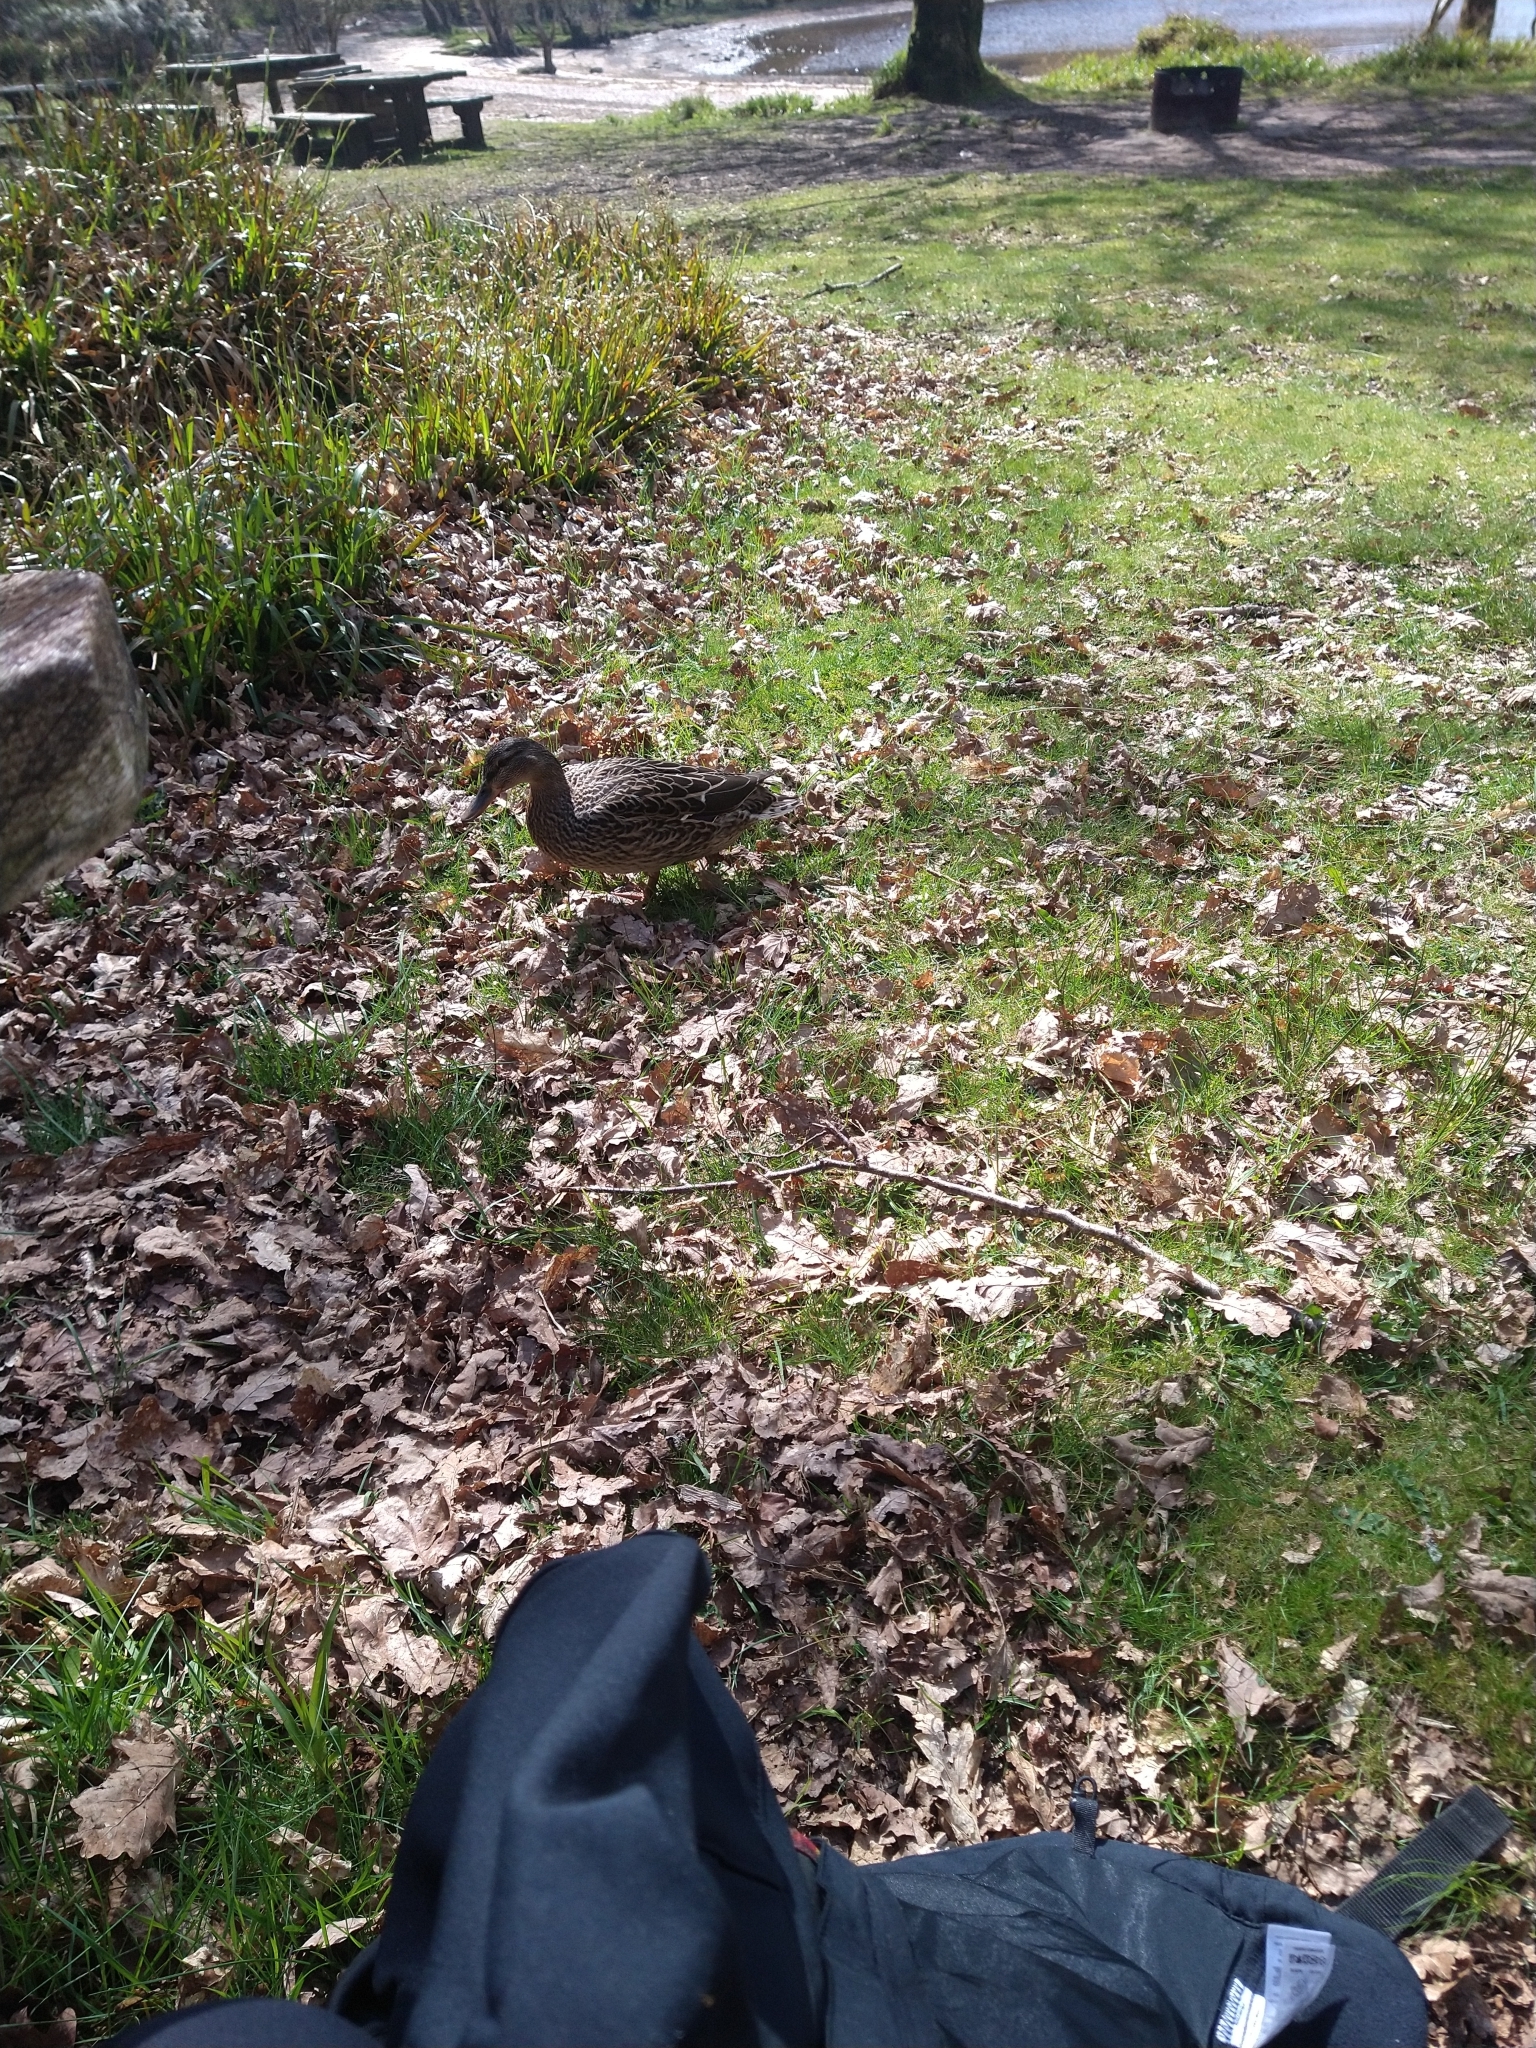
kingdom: Animalia
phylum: Chordata
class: Aves
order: Anseriformes
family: Anatidae
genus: Anas
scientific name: Anas platyrhynchos
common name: Mallard
